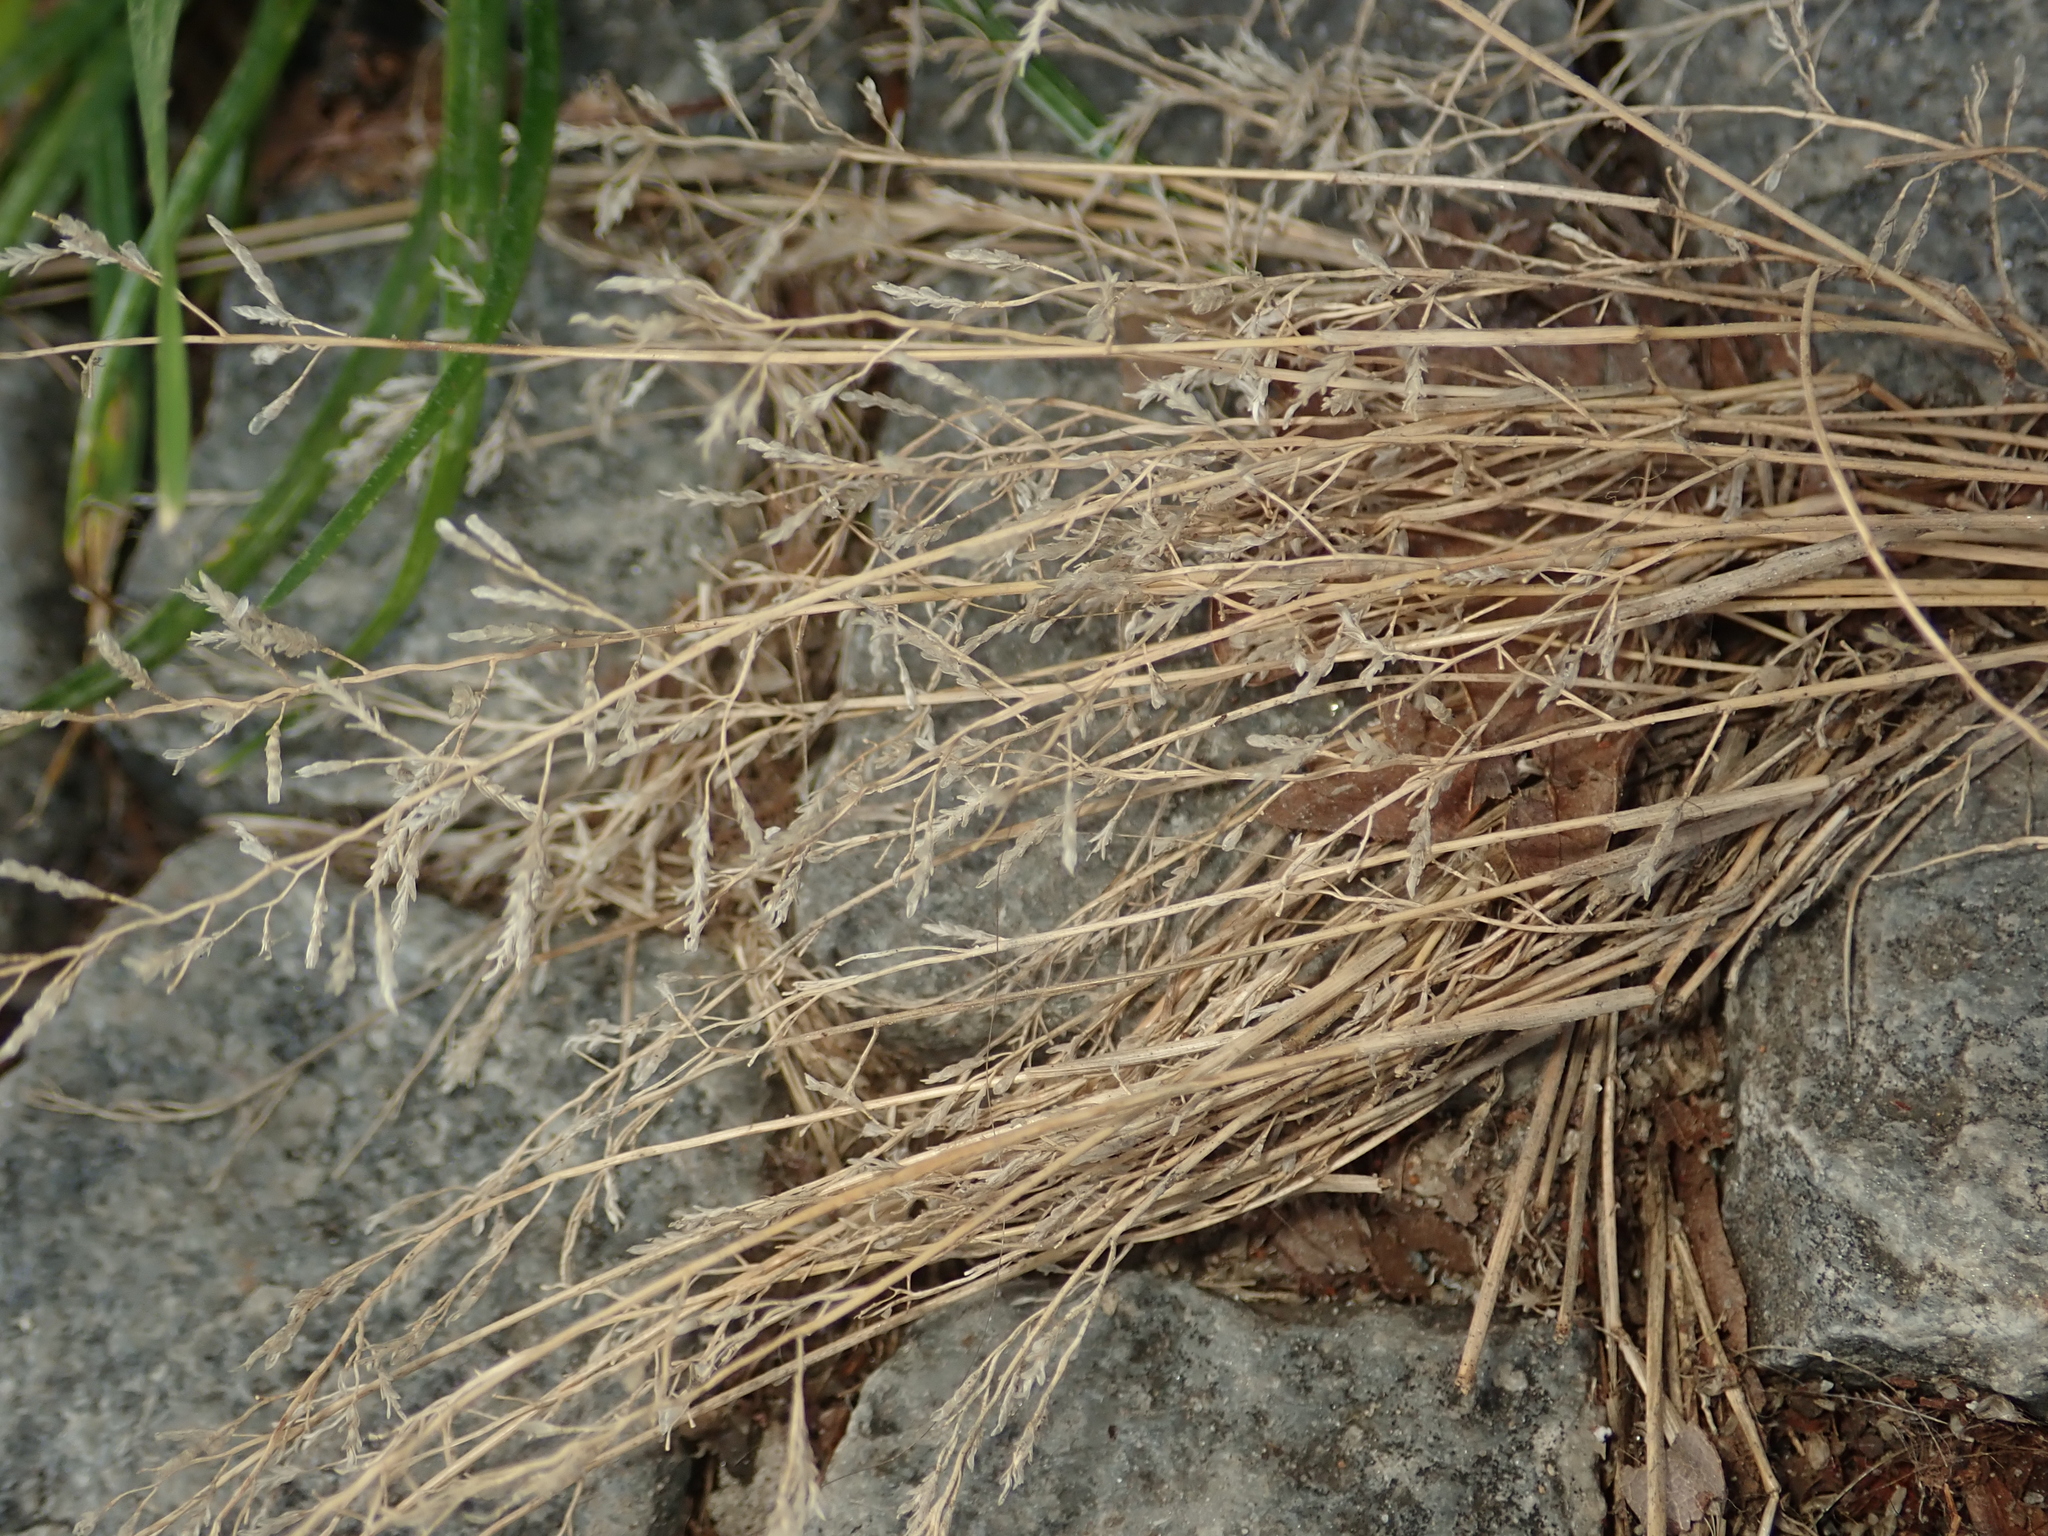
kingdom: Plantae
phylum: Tracheophyta
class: Liliopsida
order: Poales
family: Poaceae
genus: Eragrostis
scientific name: Eragrostis minor
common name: Small love-grass
